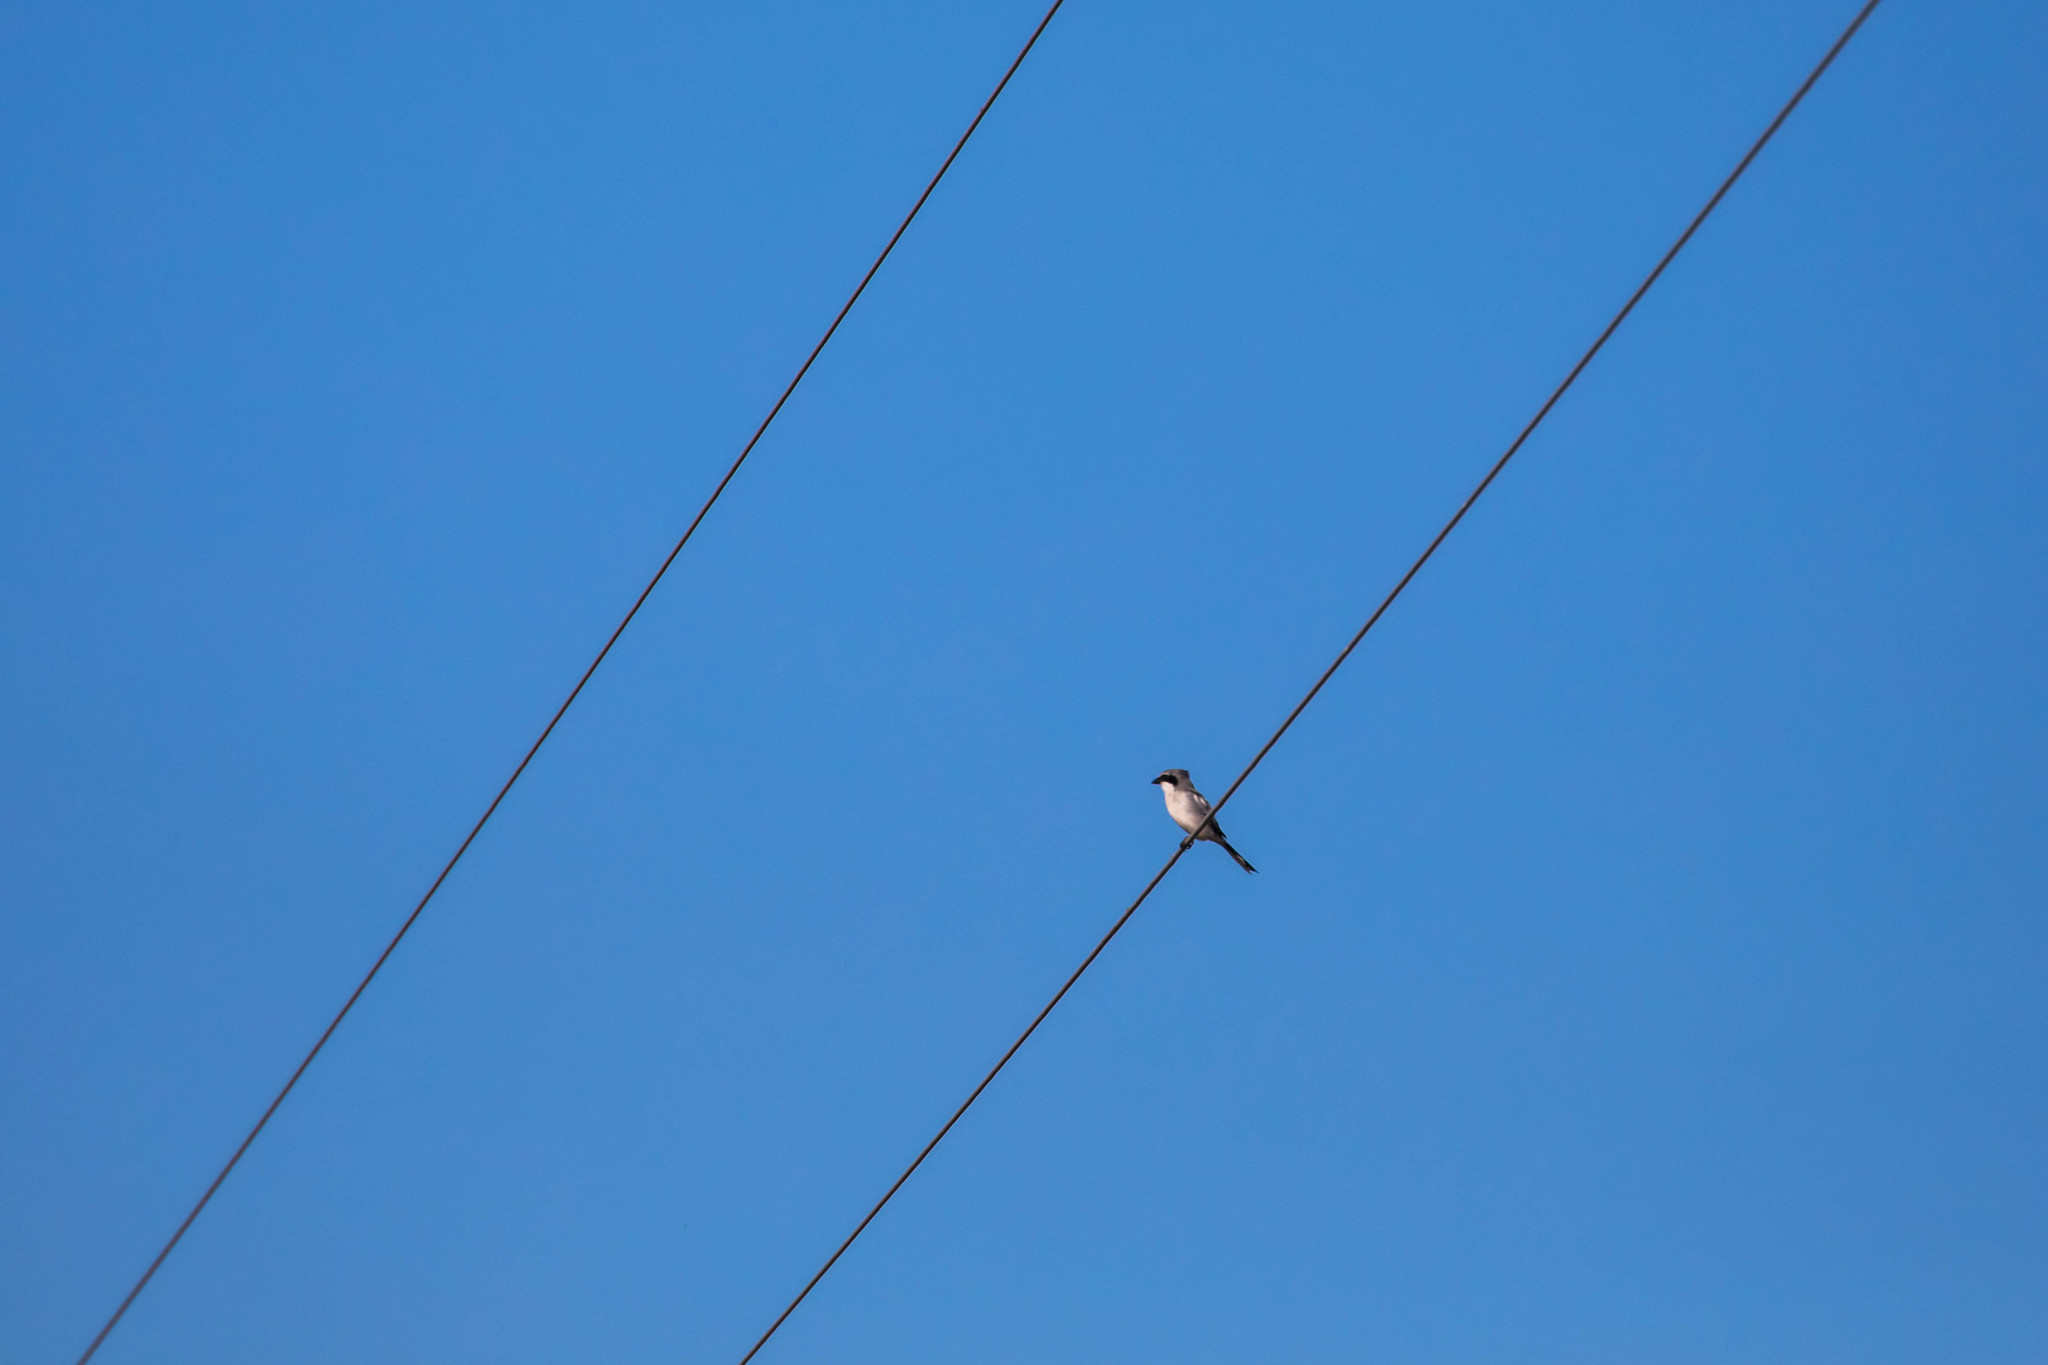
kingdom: Animalia
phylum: Chordata
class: Aves
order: Passeriformes
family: Laniidae
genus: Lanius
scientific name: Lanius ludovicianus
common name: Loggerhead shrike
